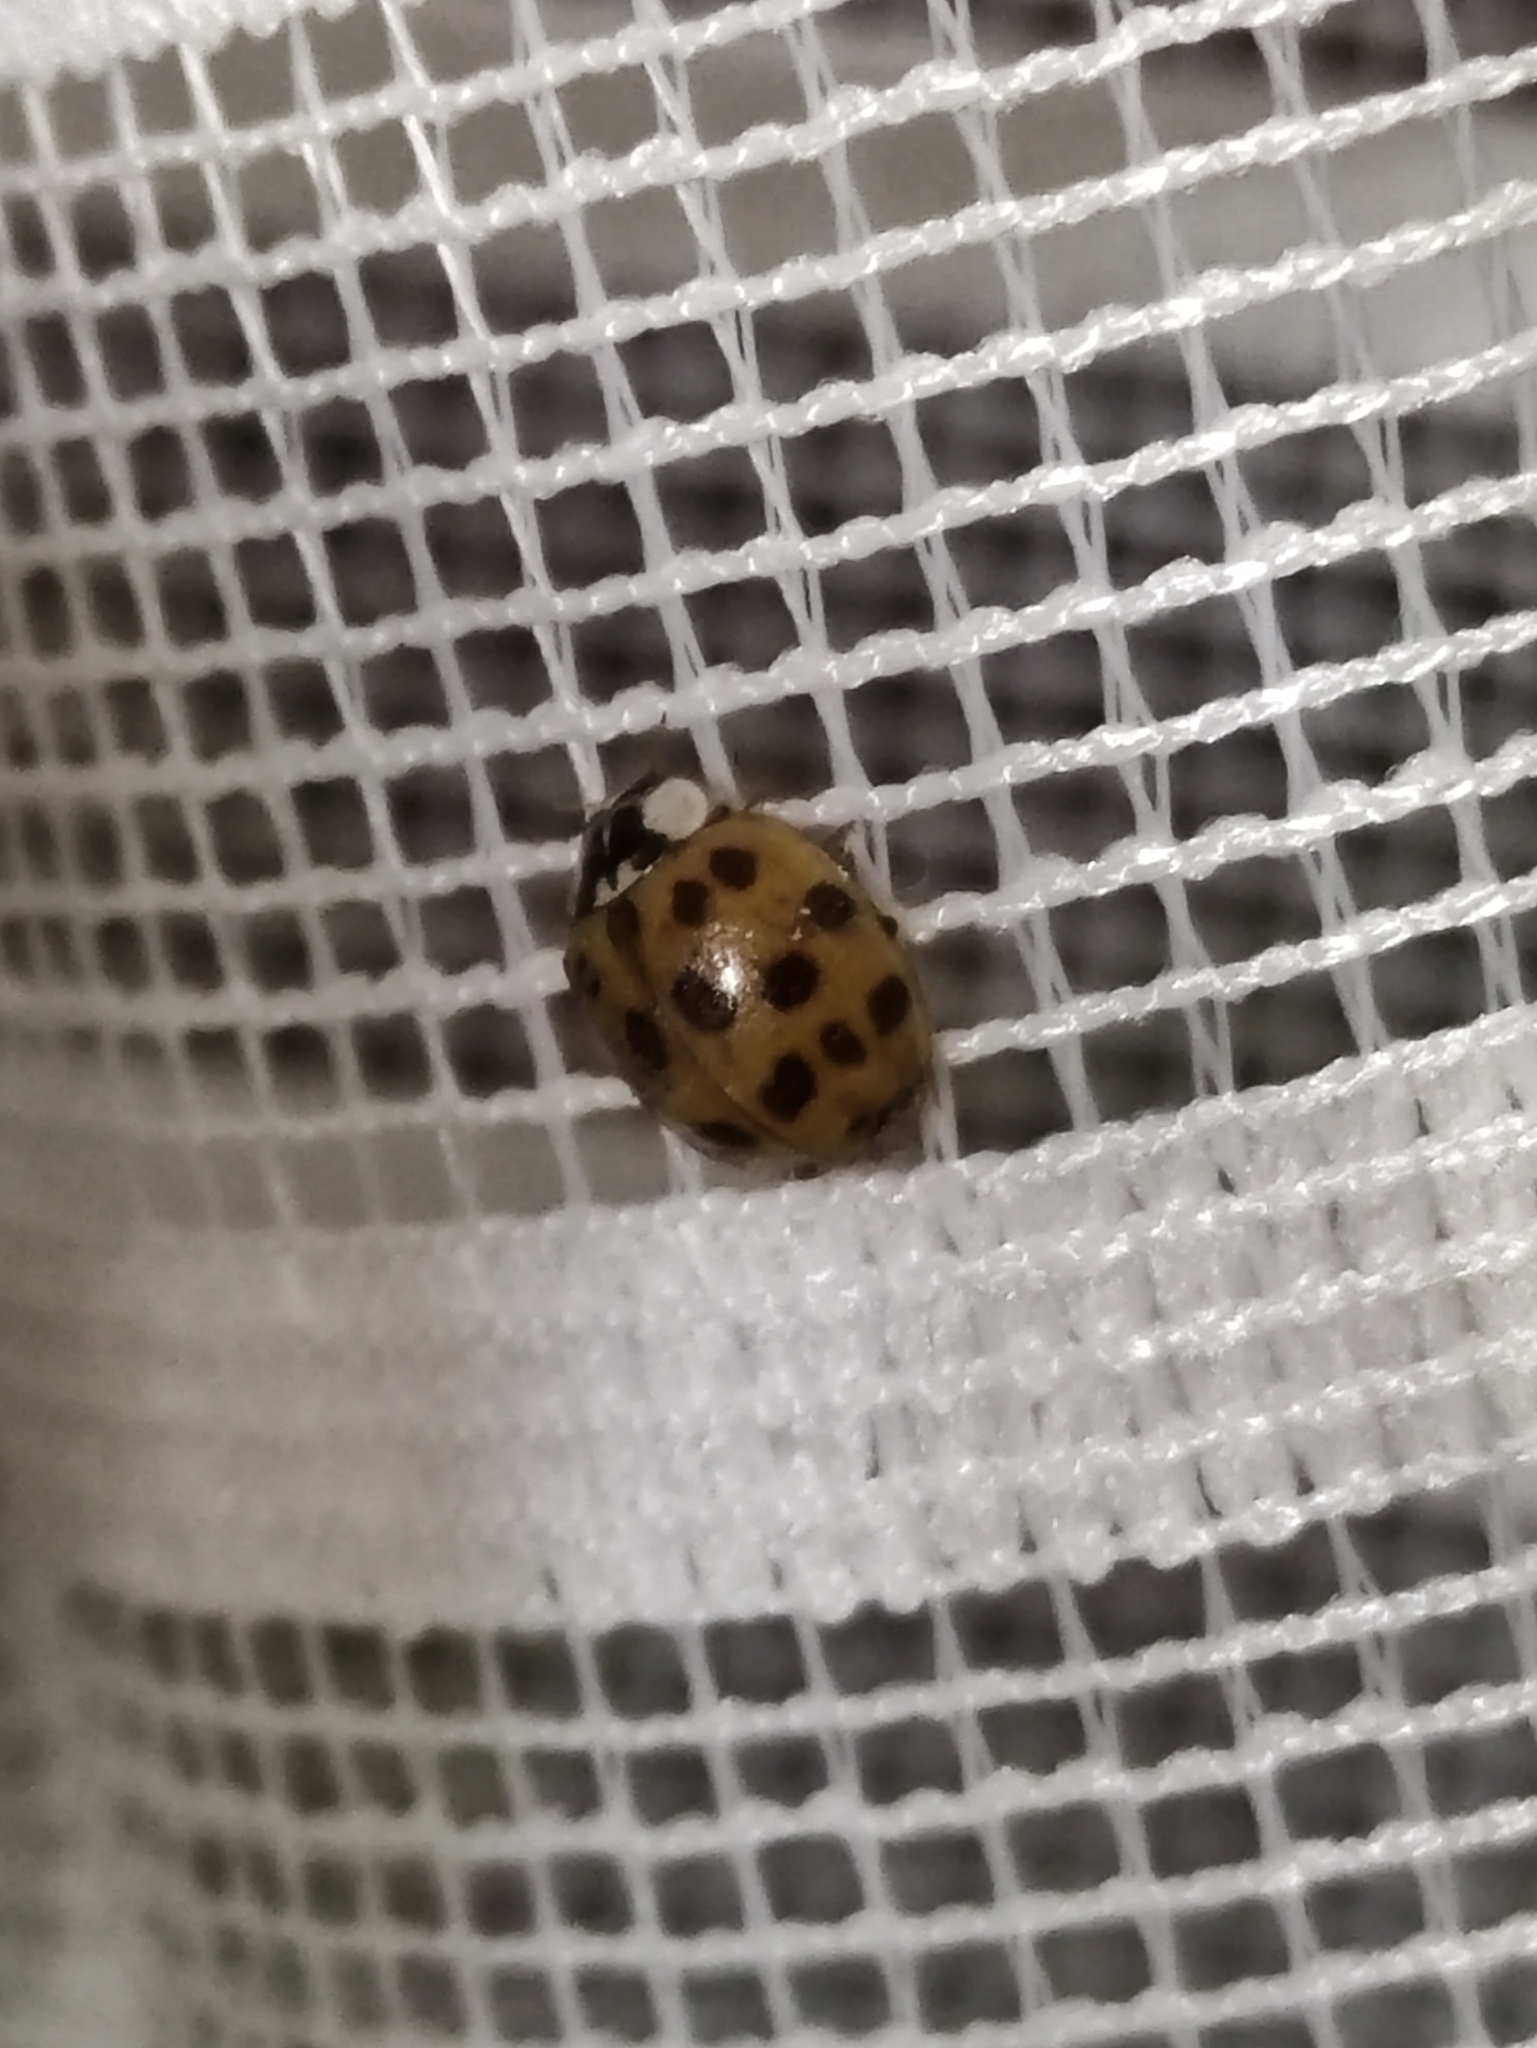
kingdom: Animalia
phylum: Arthropoda
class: Insecta
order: Coleoptera
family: Coccinellidae
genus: Harmonia
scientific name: Harmonia axyridis
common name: Harlequin ladybird
